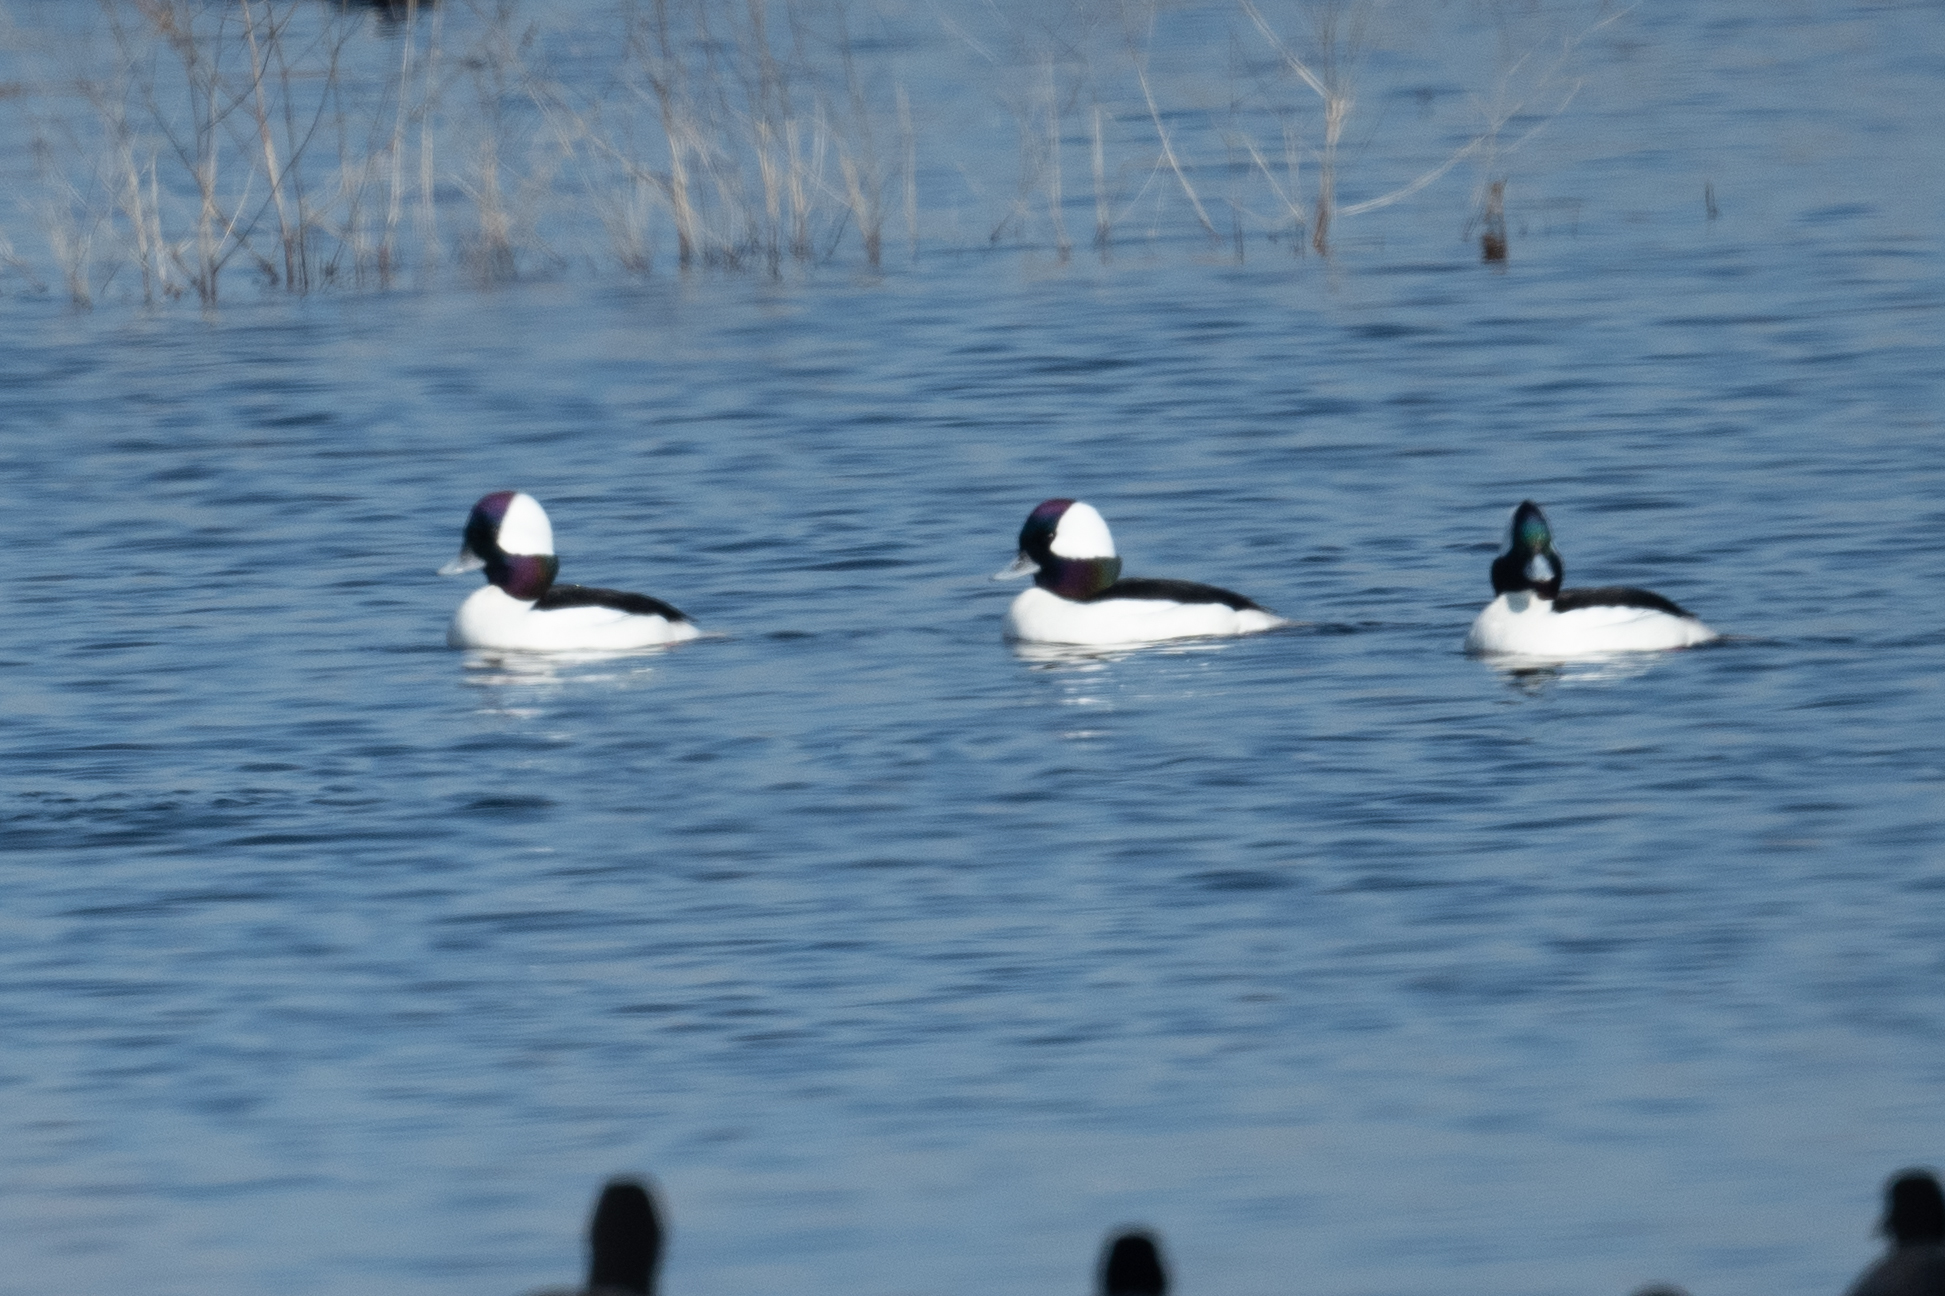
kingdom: Animalia
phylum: Chordata
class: Aves
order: Anseriformes
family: Anatidae
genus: Bucephala
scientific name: Bucephala albeola
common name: Bufflehead
